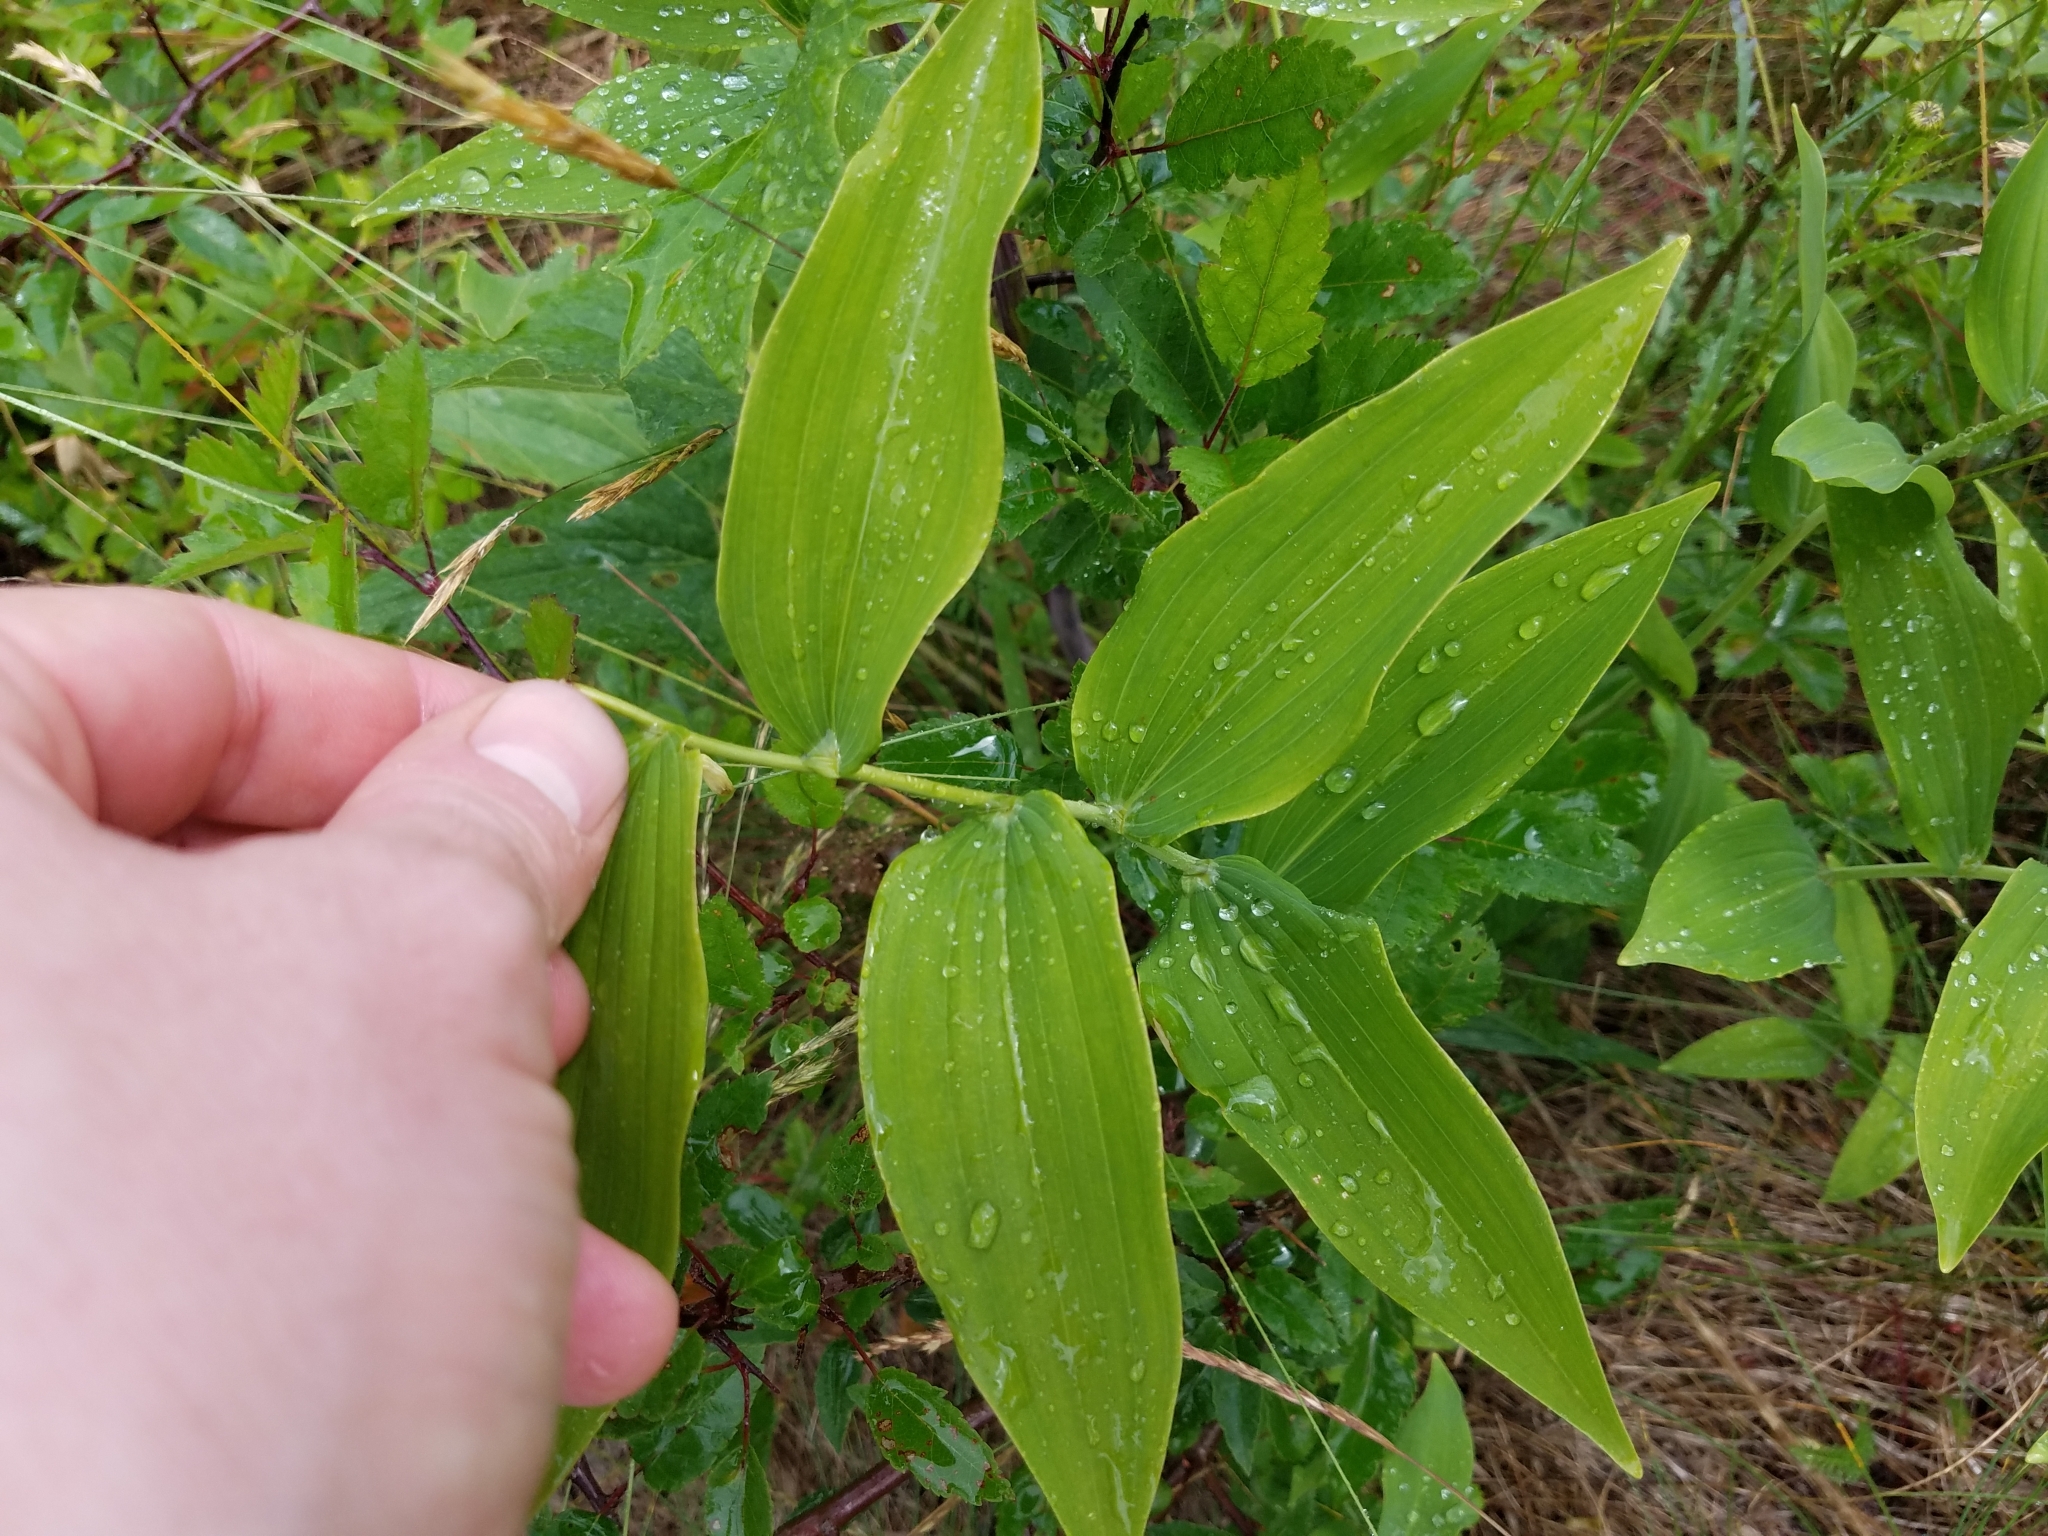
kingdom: Plantae
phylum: Tracheophyta
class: Liliopsida
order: Asparagales
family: Asparagaceae
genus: Polygonatum
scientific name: Polygonatum biflorum
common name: American solomon's-seal
